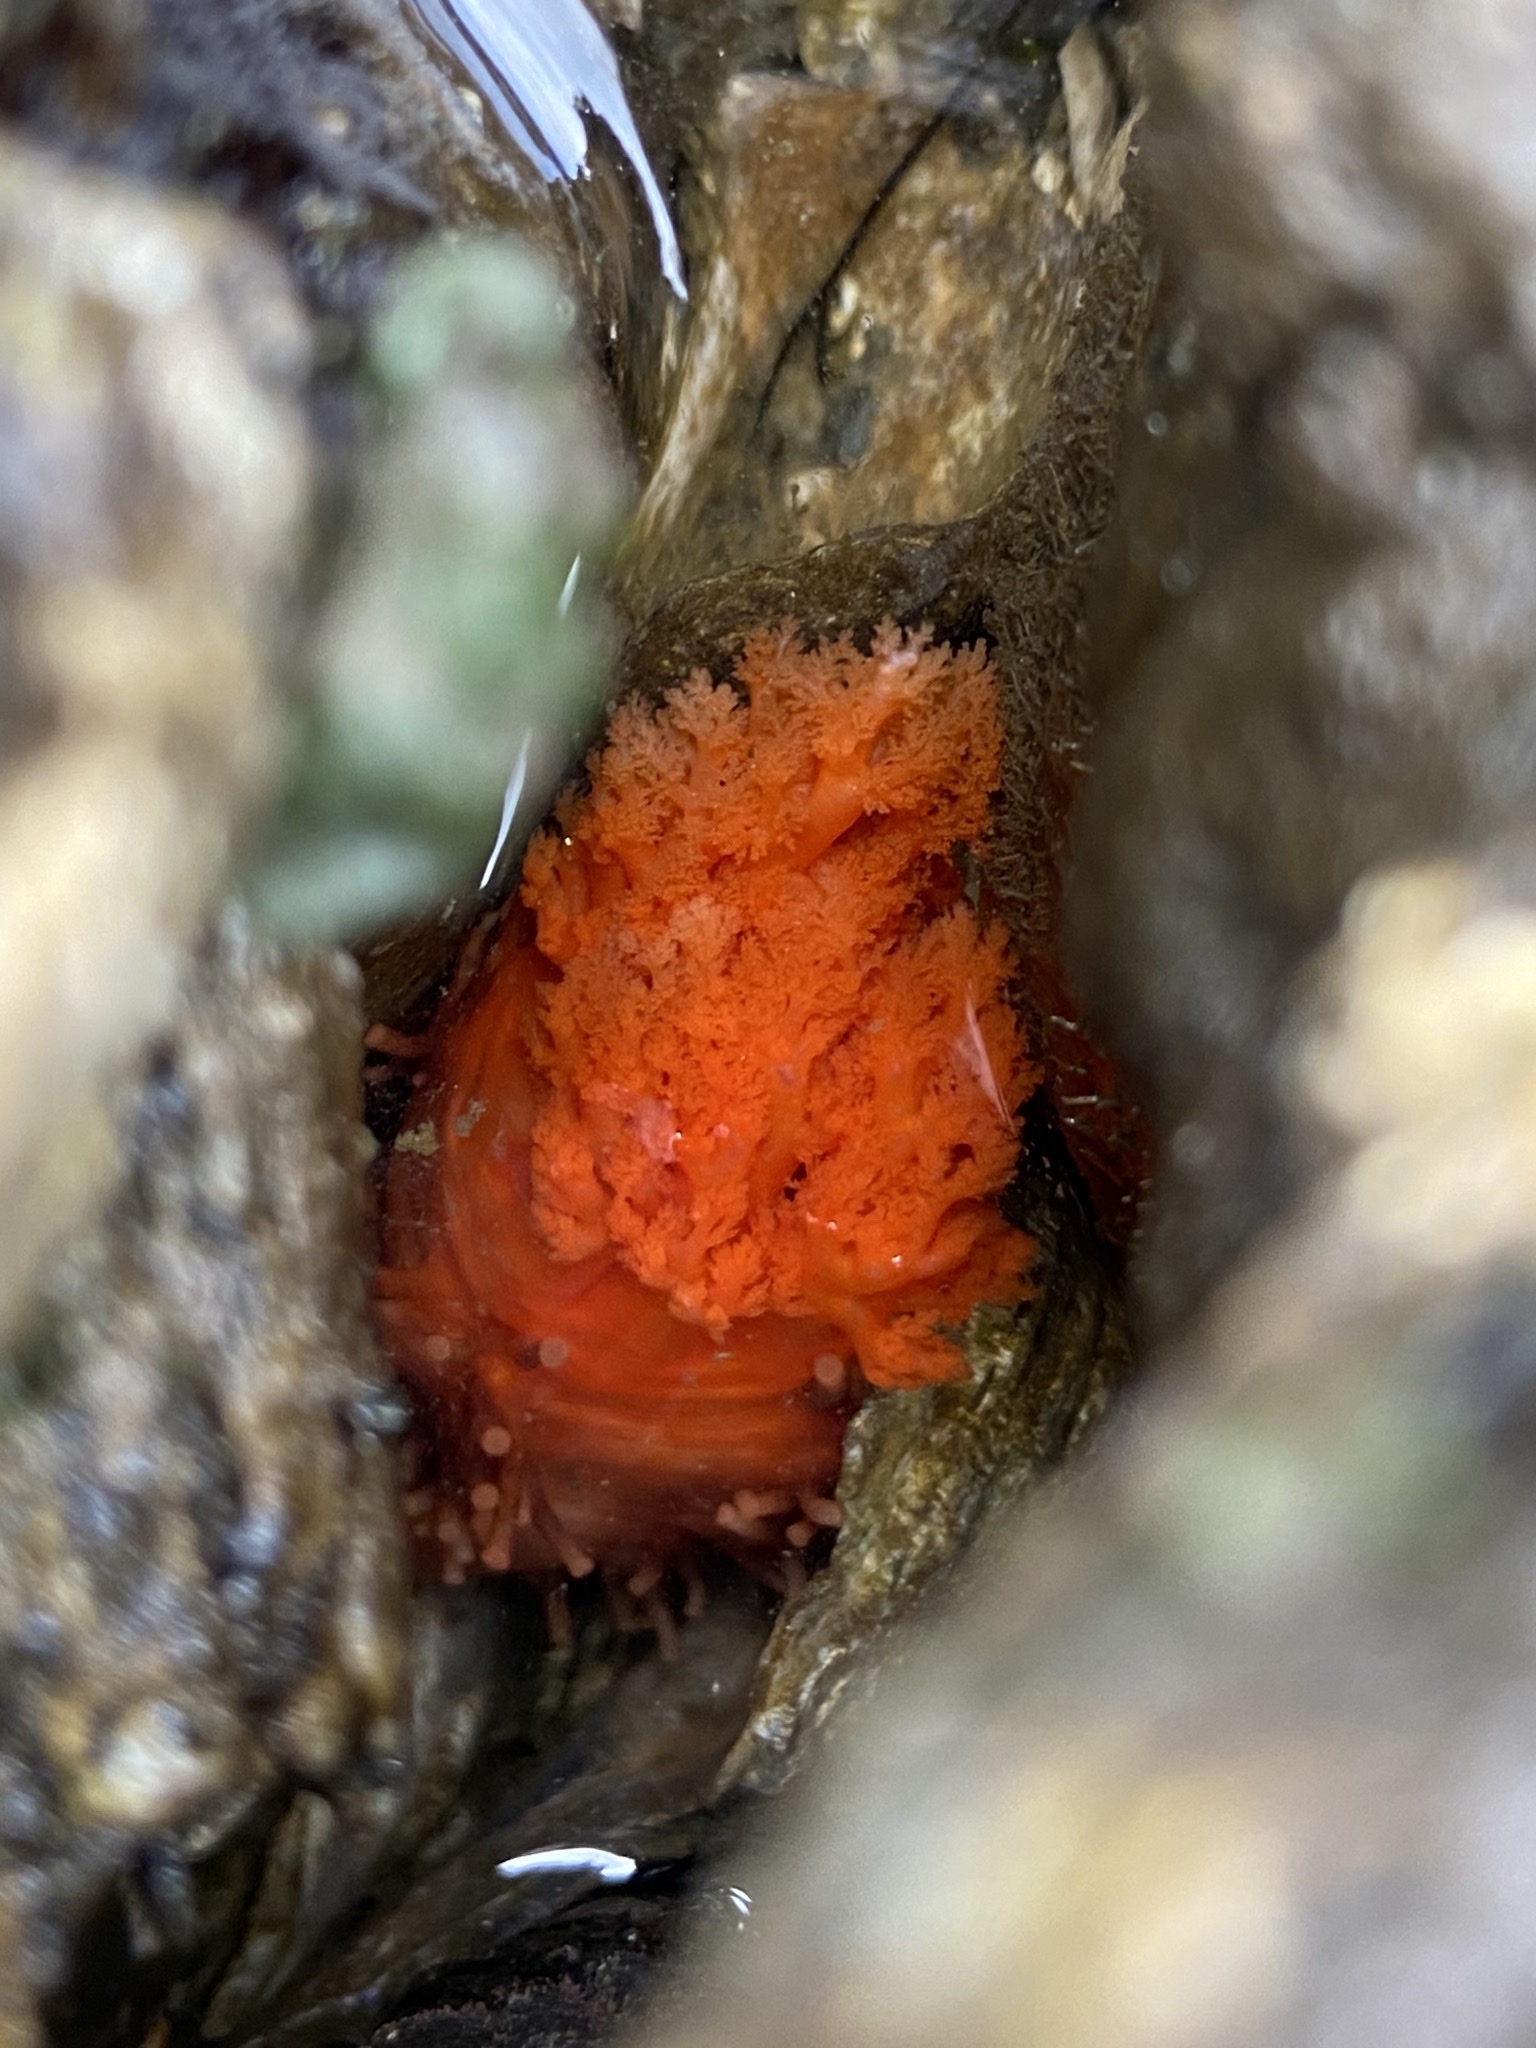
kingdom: Animalia
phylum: Echinodermata
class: Holothuroidea
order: Dendrochirotida
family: Cucumariidae
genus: Cucumaria
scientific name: Cucumaria miniata
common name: Orange sea cucumber
